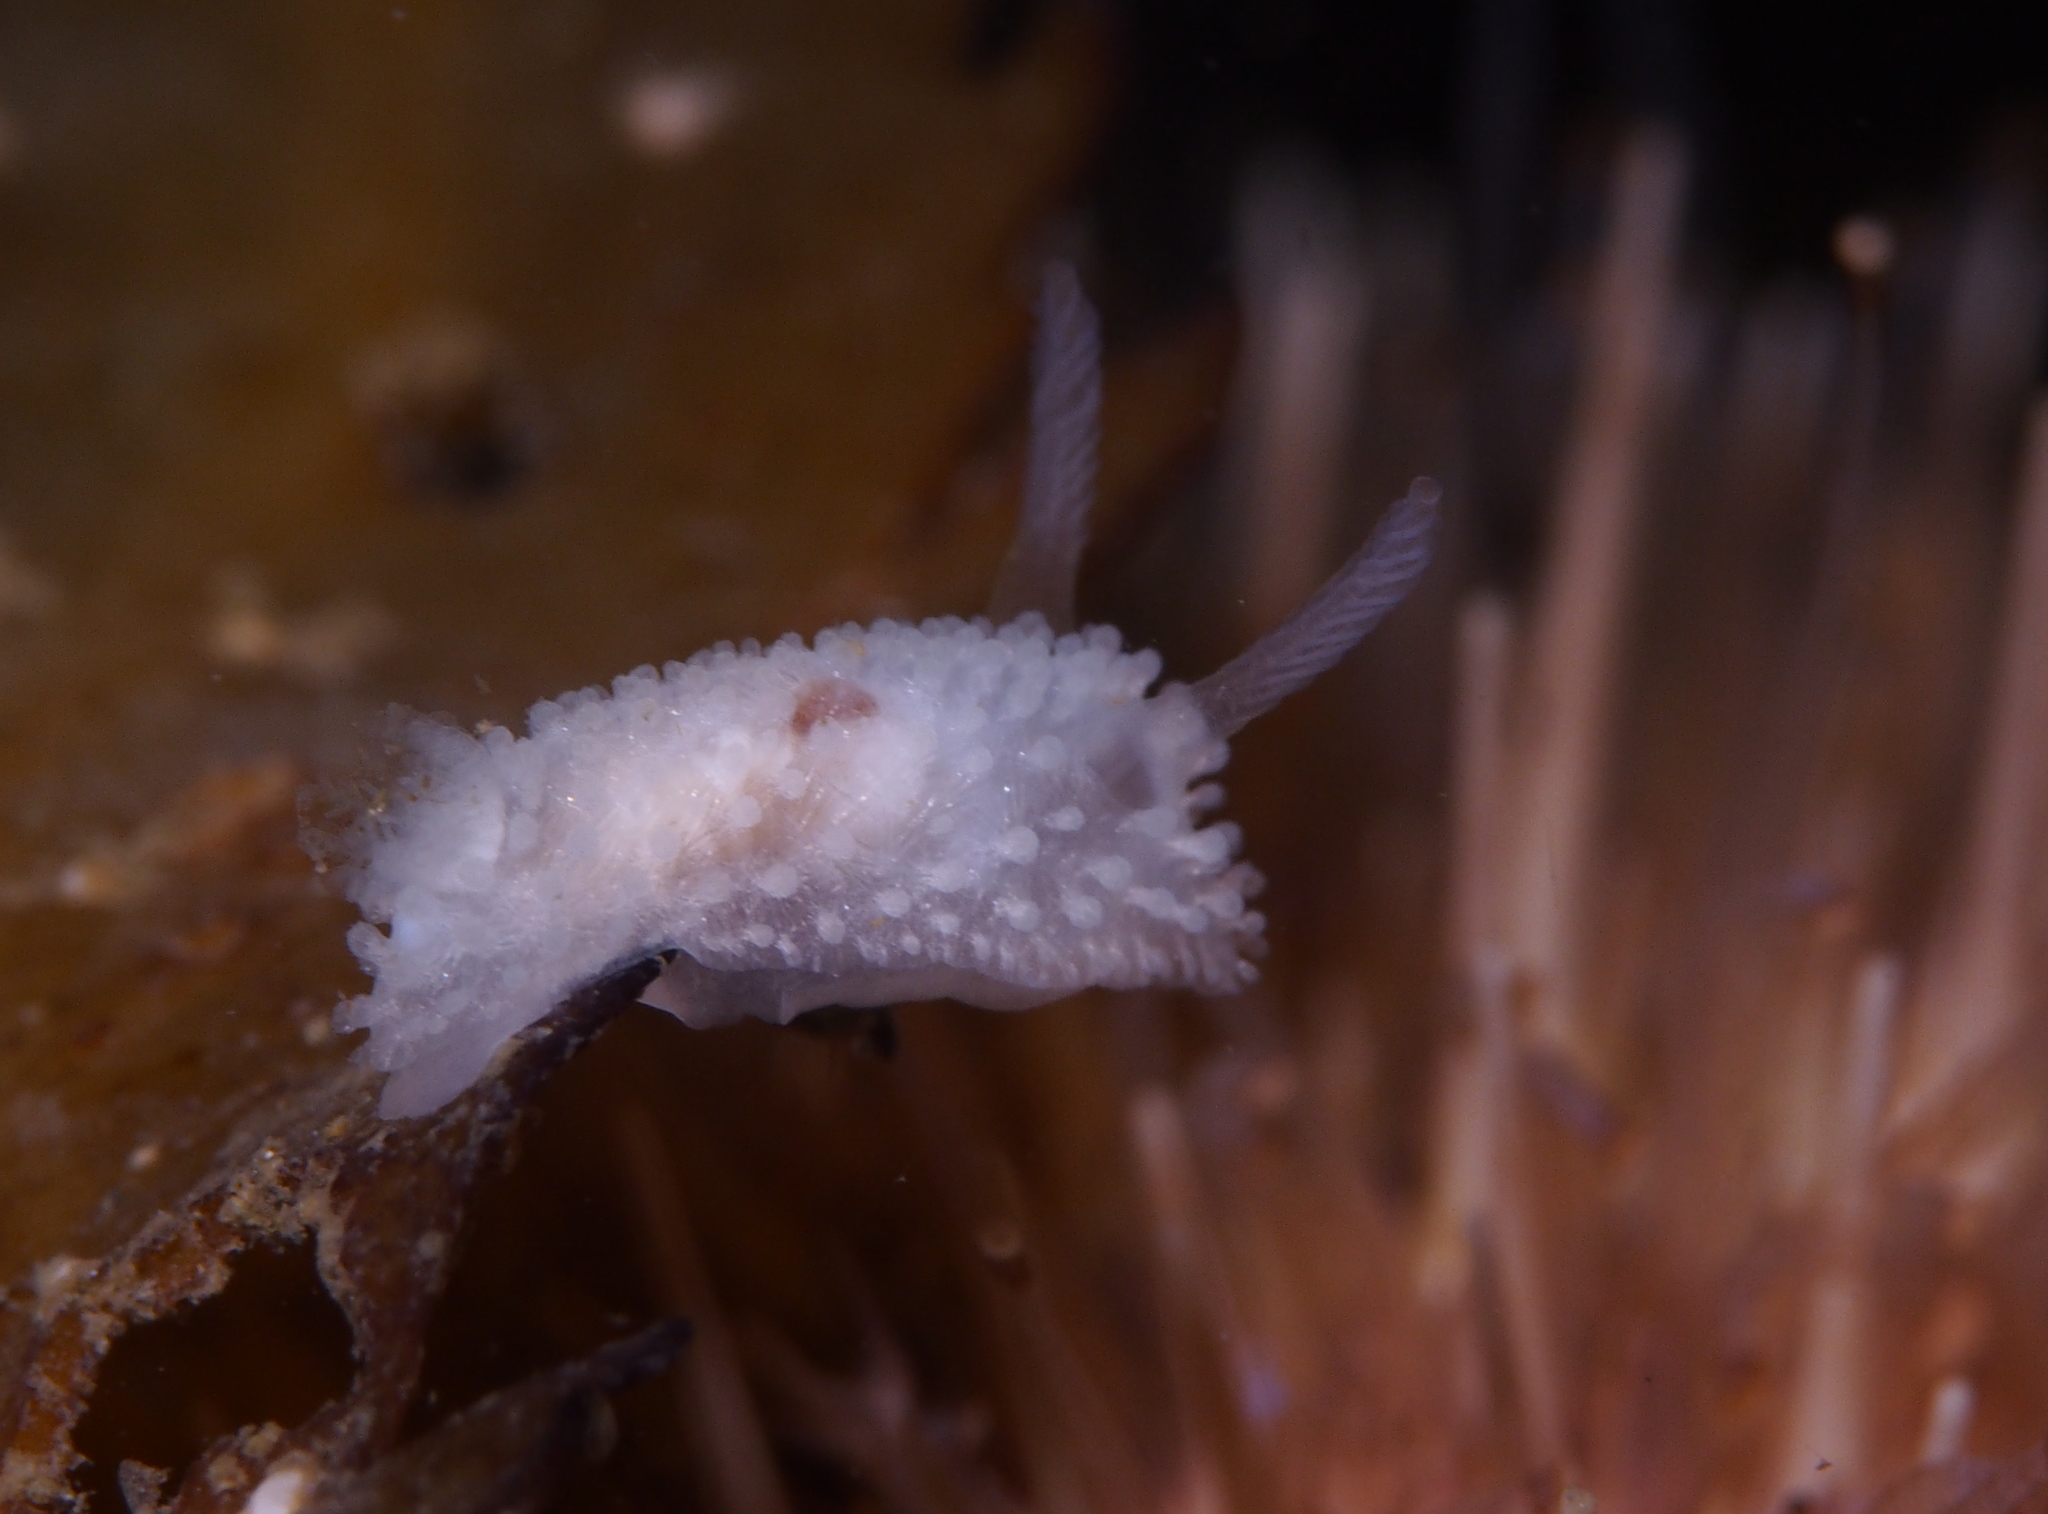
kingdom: Animalia
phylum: Mollusca
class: Gastropoda
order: Nudibranchia
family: Onchidorididae
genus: Onchidoris
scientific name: Onchidoris muricata
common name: Rough doris
